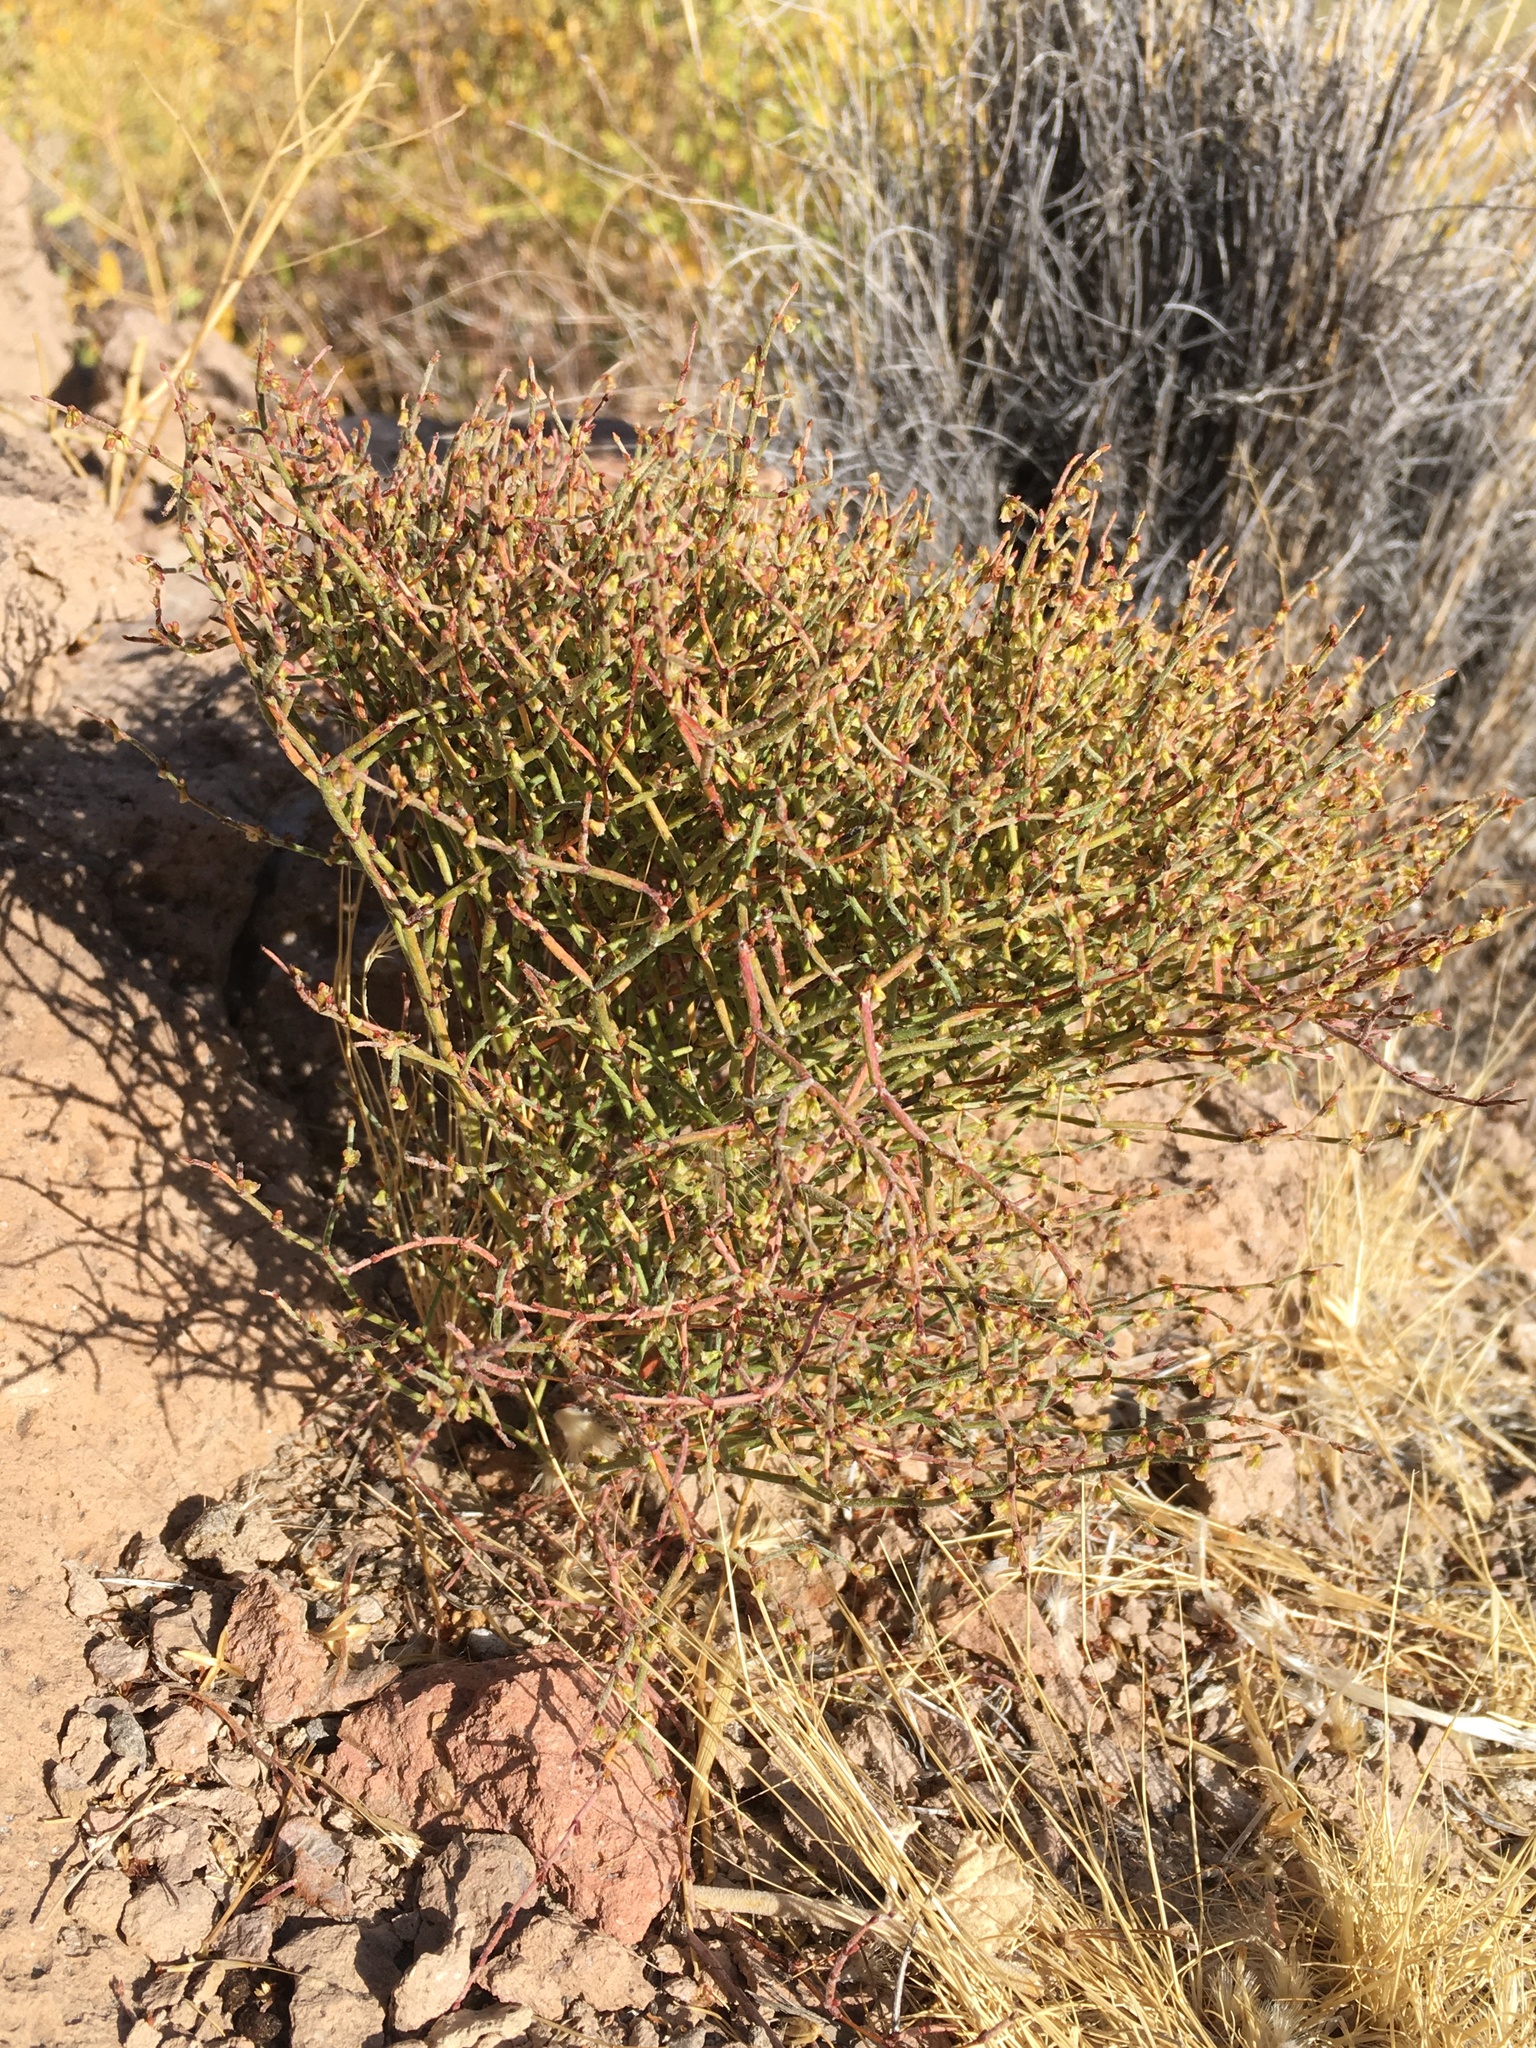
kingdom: Plantae
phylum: Tracheophyta
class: Magnoliopsida
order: Caryophyllales
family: Polygonaceae
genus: Eriogonum
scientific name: Eriogonum nidularium
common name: Bird's-nest wild buckwheat
